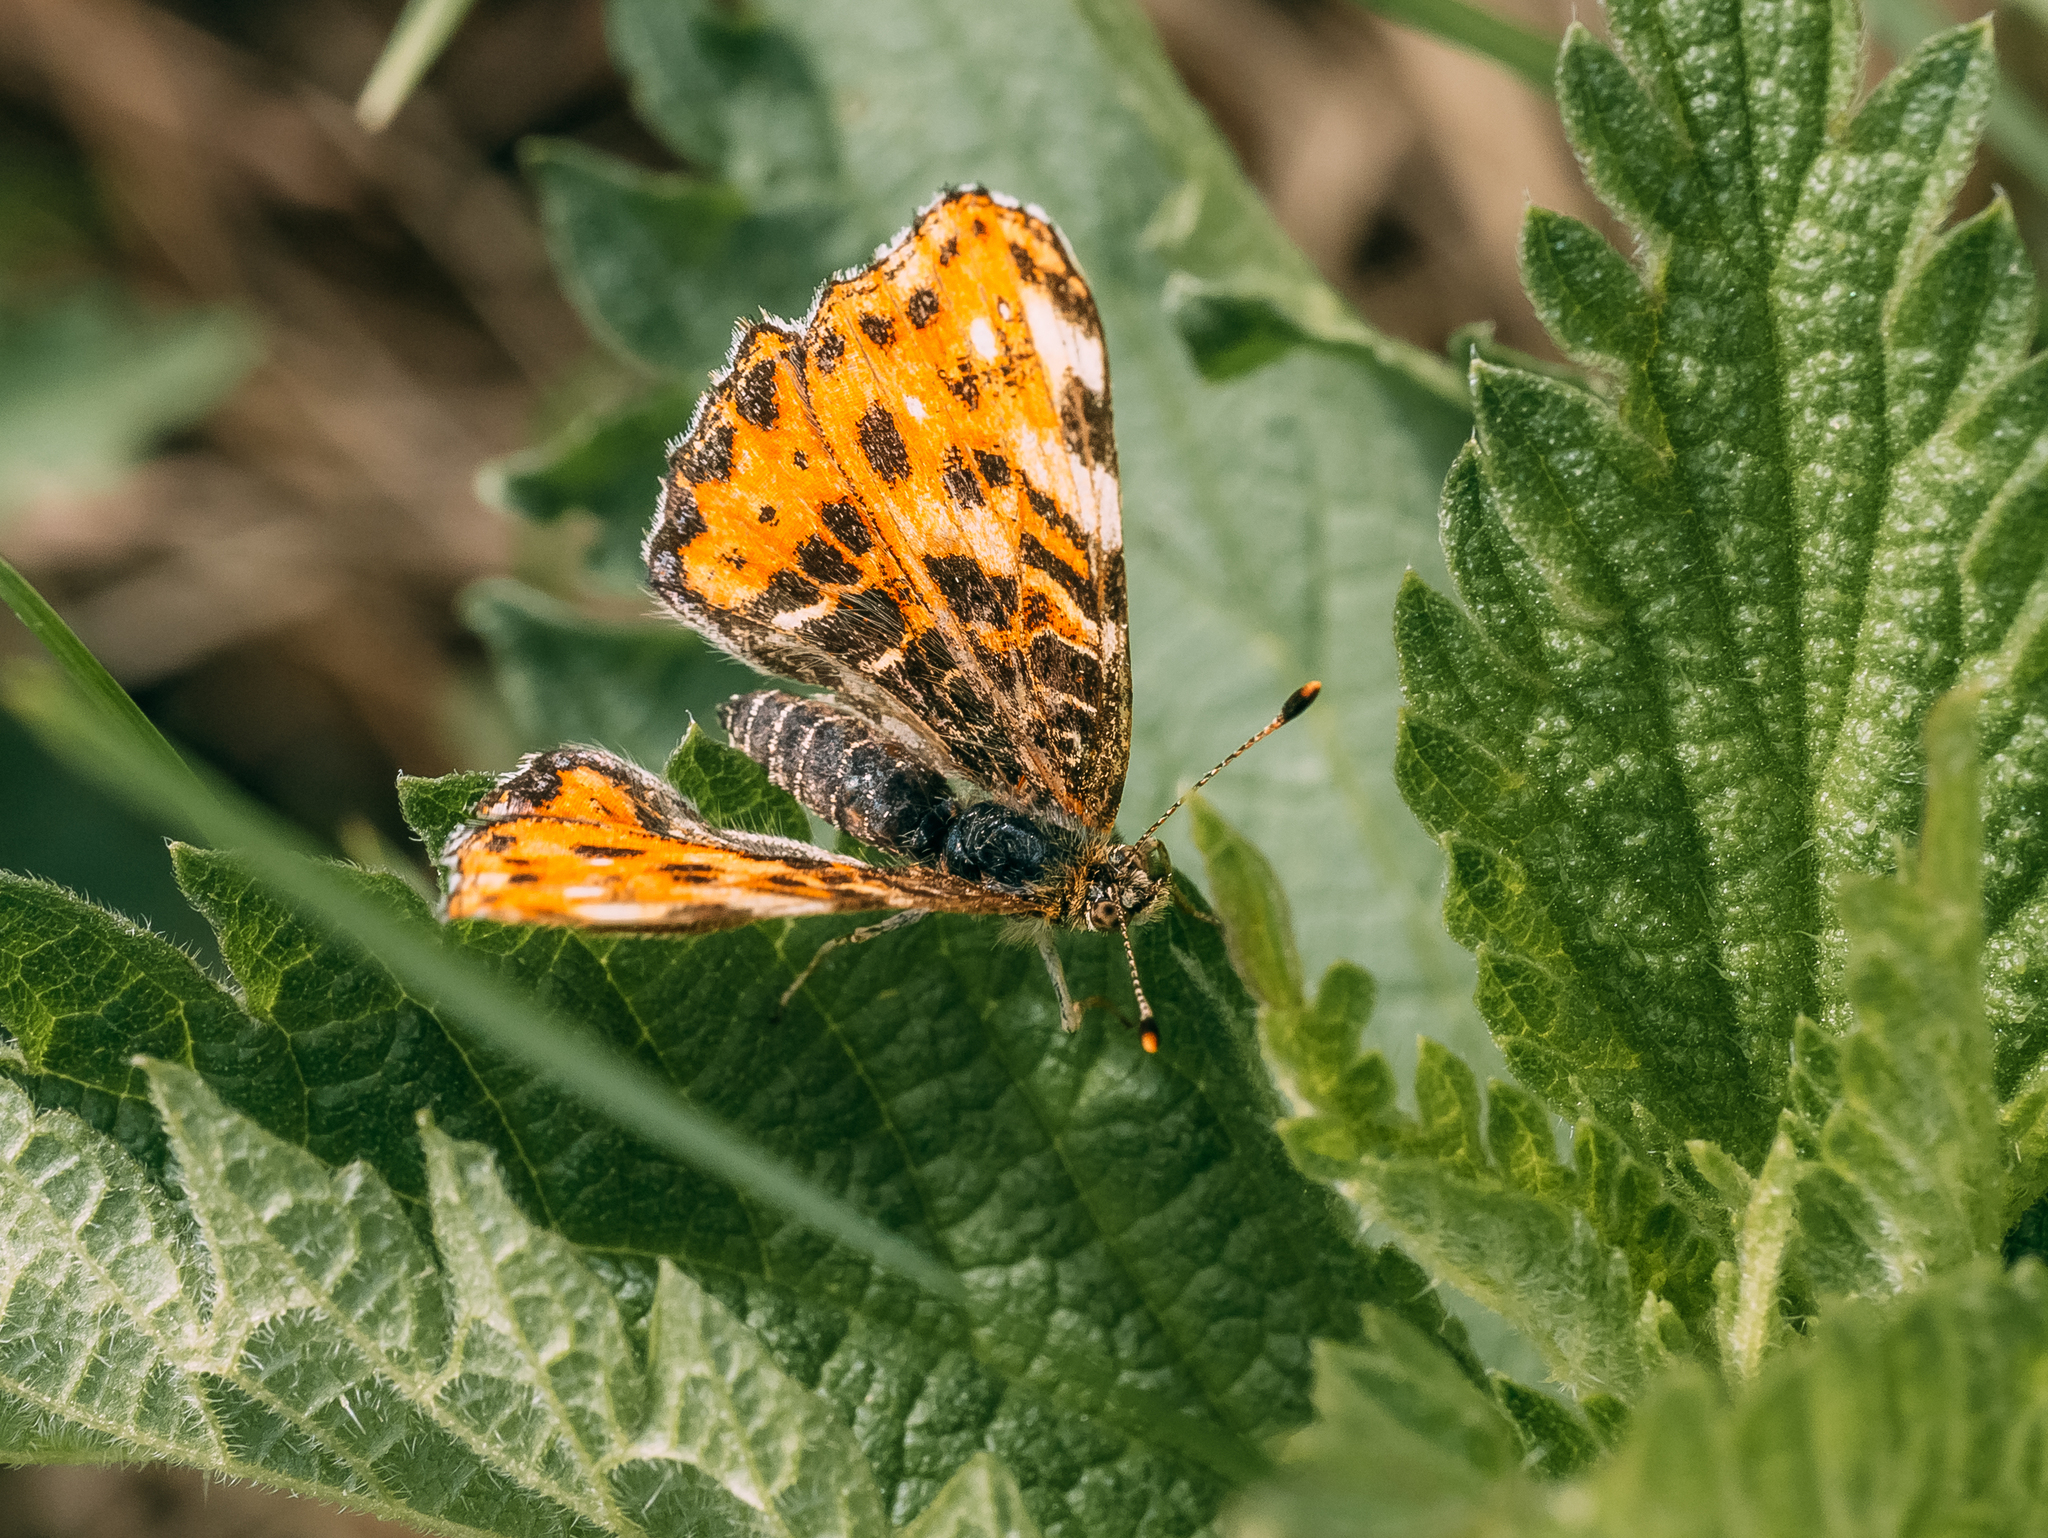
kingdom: Animalia
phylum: Arthropoda
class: Insecta
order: Lepidoptera
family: Nymphalidae
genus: Araschnia
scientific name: Araschnia levana
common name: Map butterfly
